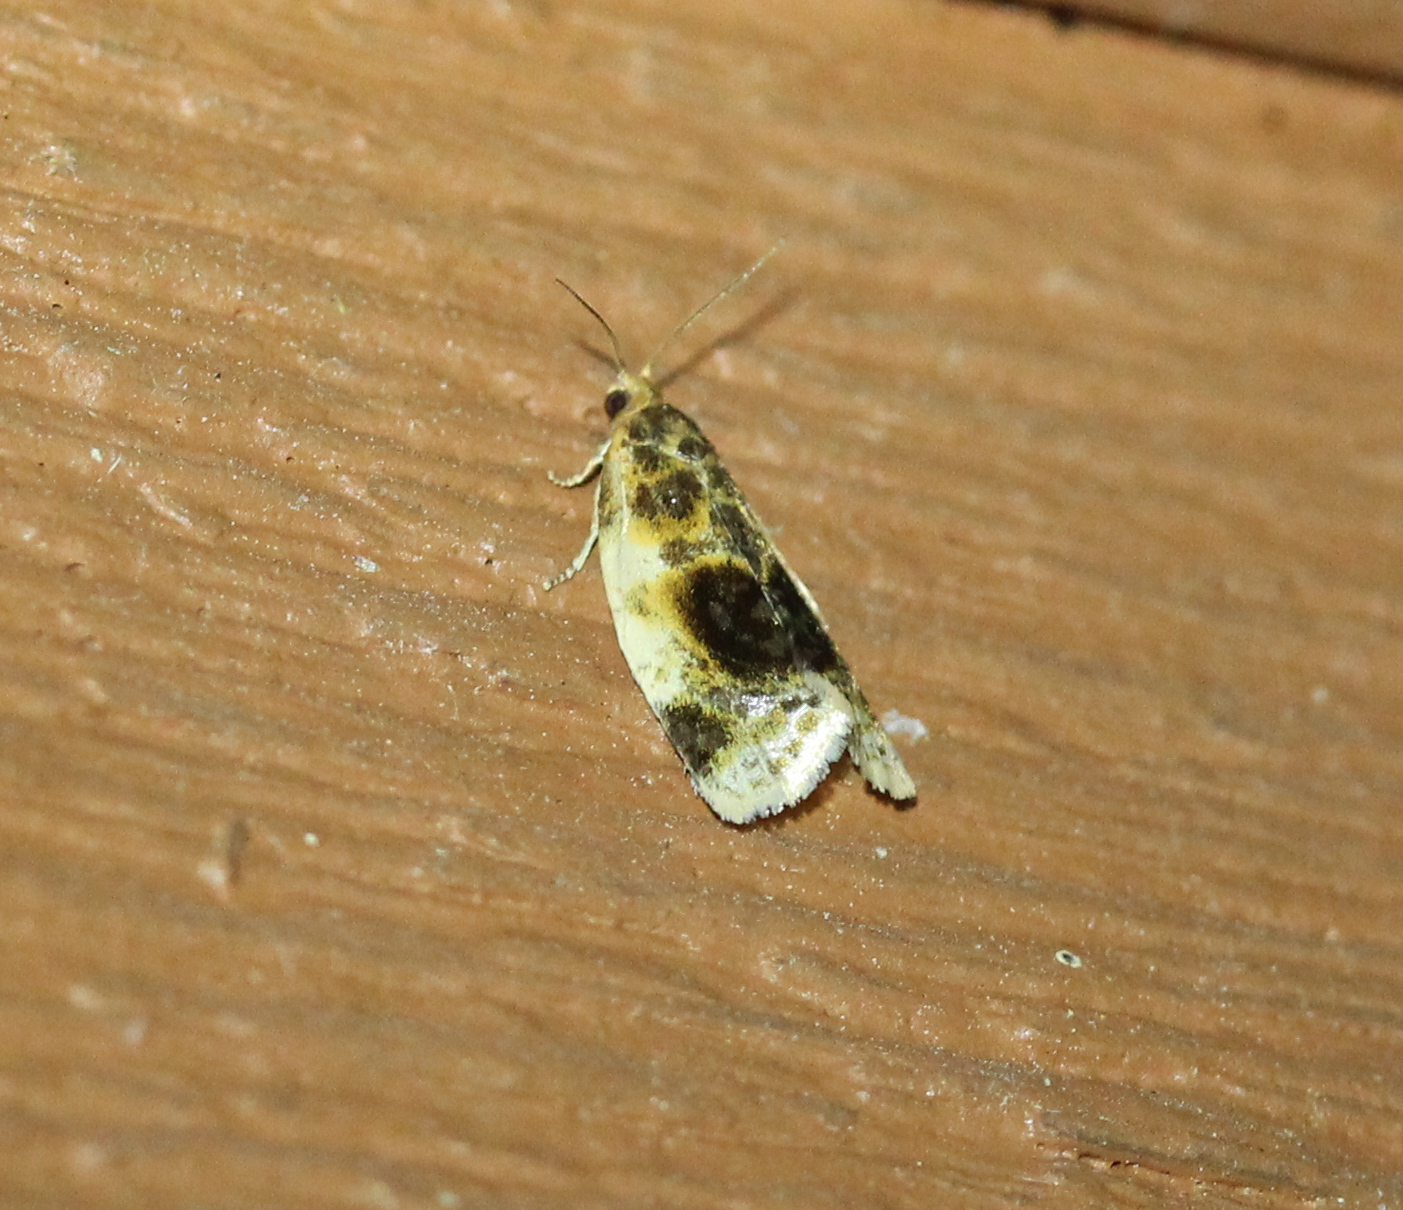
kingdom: Animalia
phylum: Arthropoda
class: Insecta
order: Lepidoptera
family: Tortricidae
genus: Clepsis
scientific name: Clepsis melaleucanus
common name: American apple tortrix
